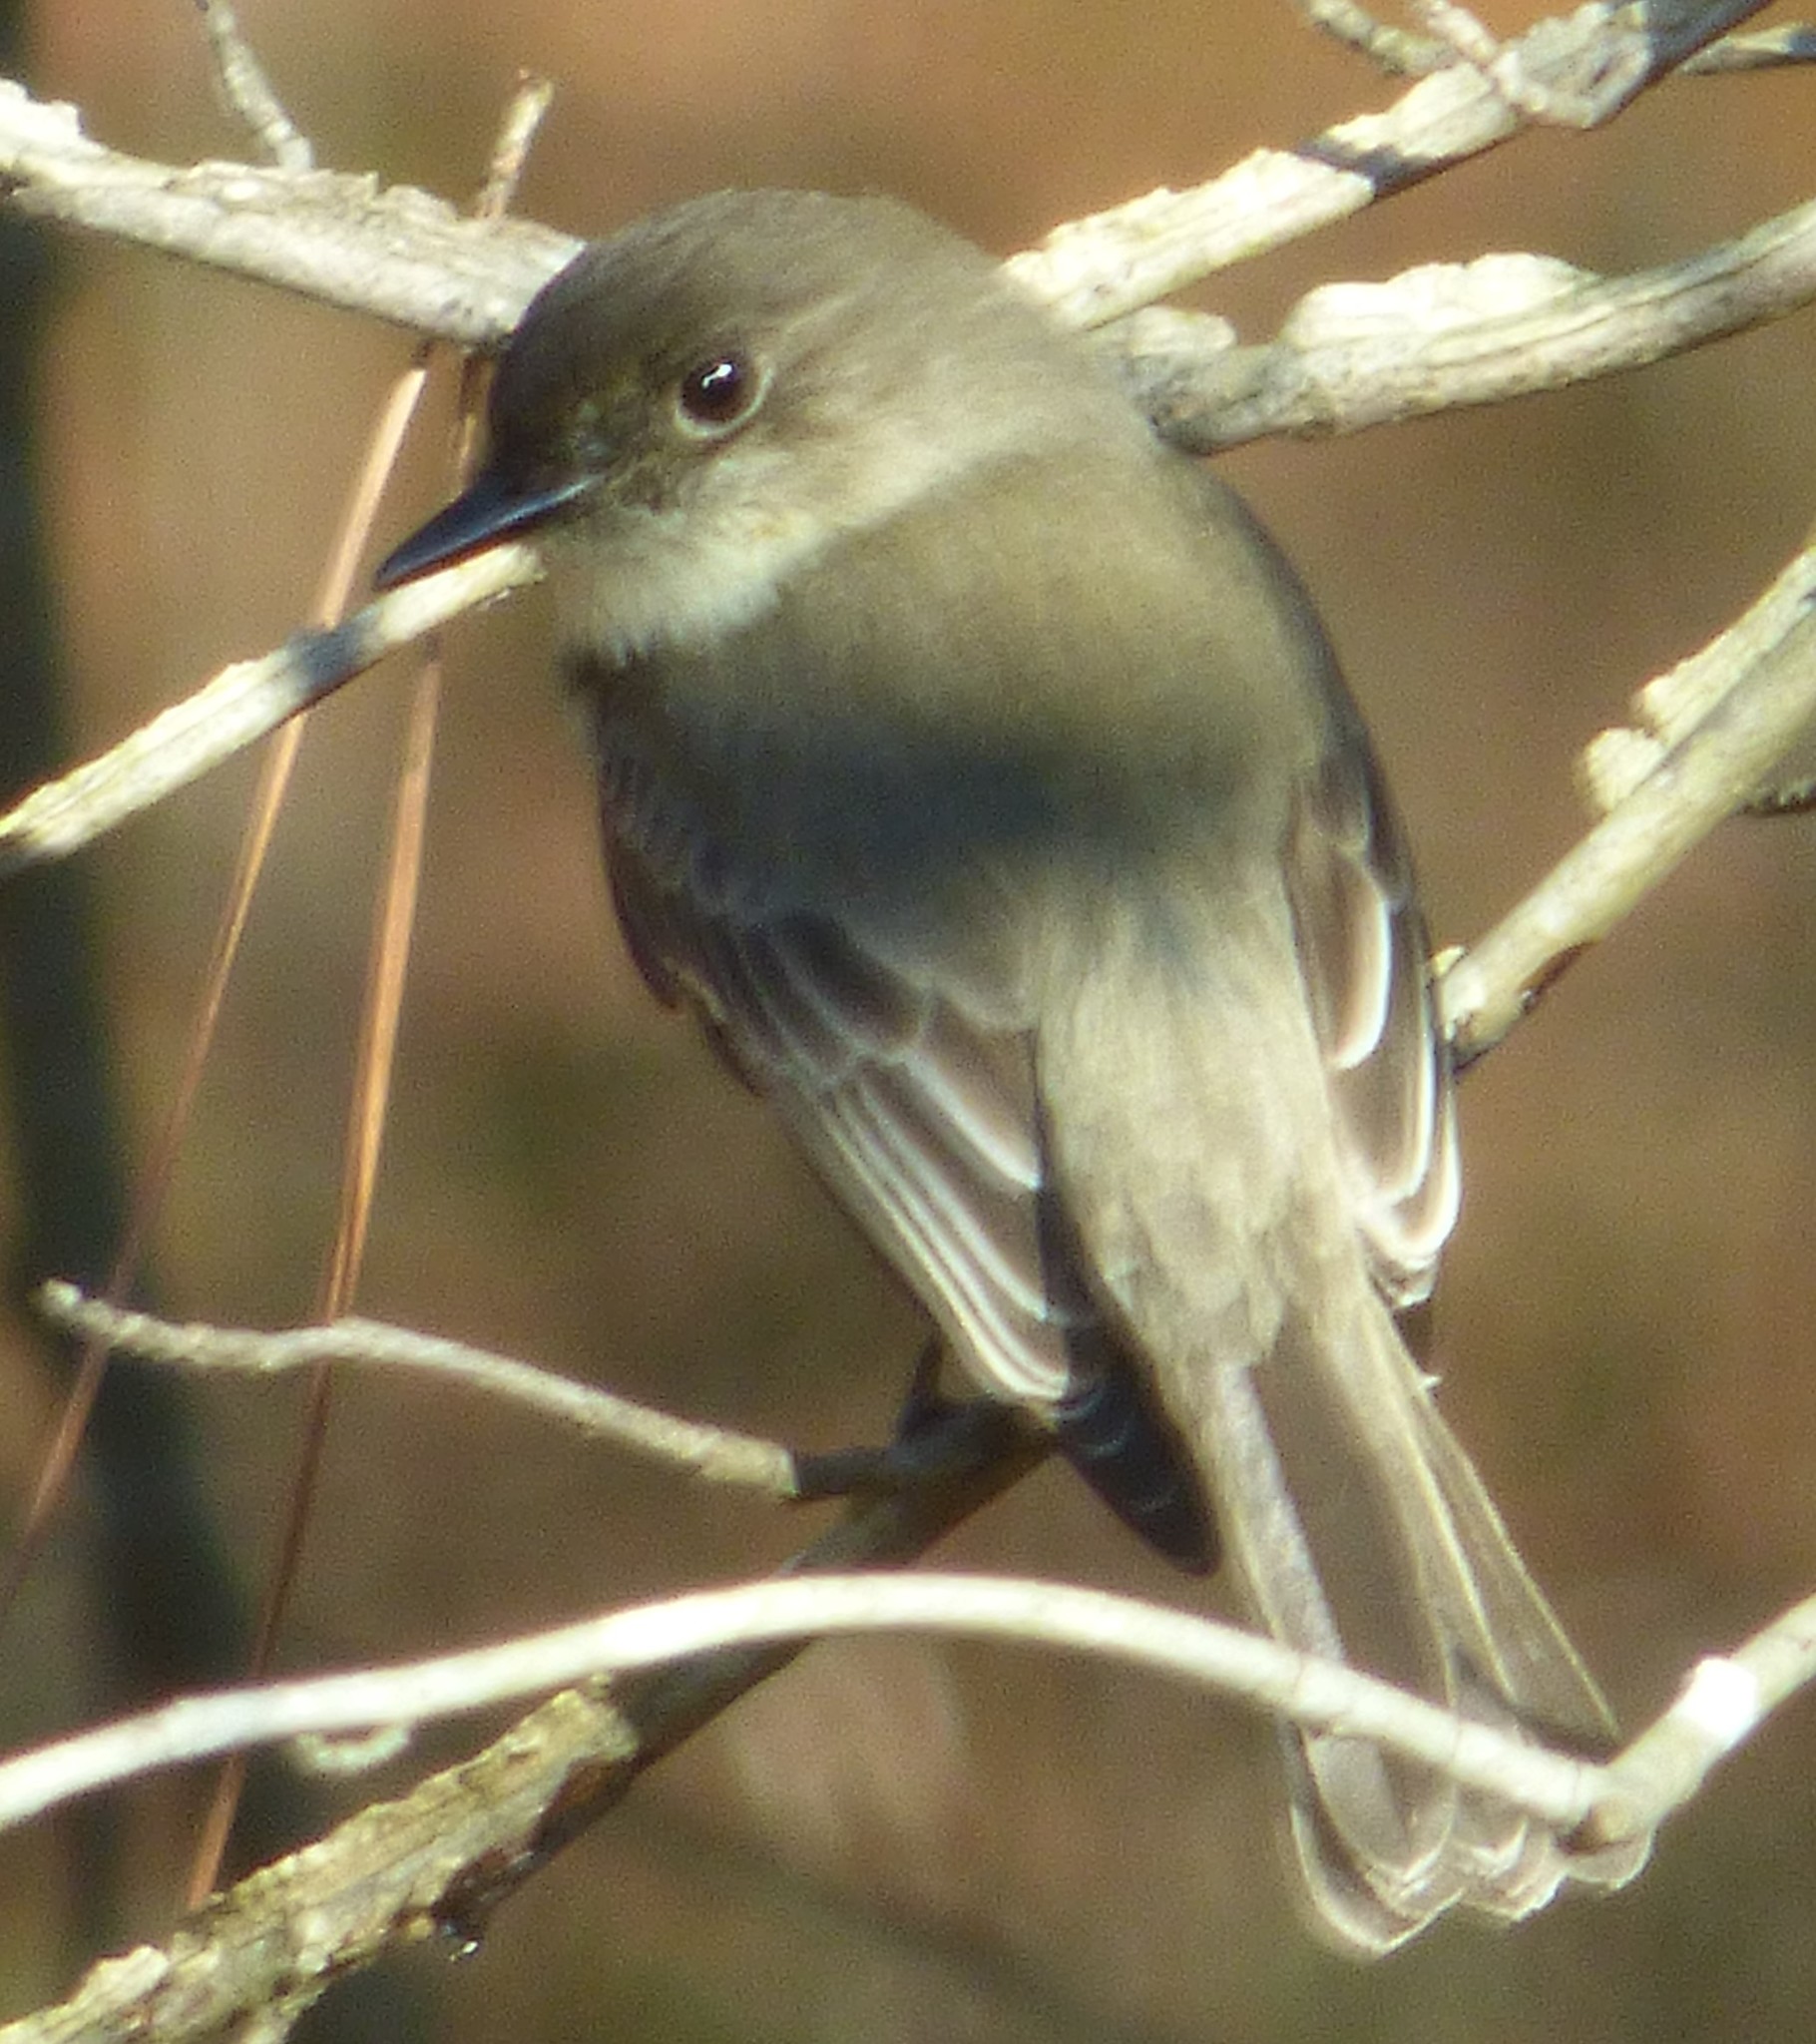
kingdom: Animalia
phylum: Chordata
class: Aves
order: Passeriformes
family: Tyrannidae
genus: Sayornis
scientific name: Sayornis phoebe
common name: Eastern phoebe
